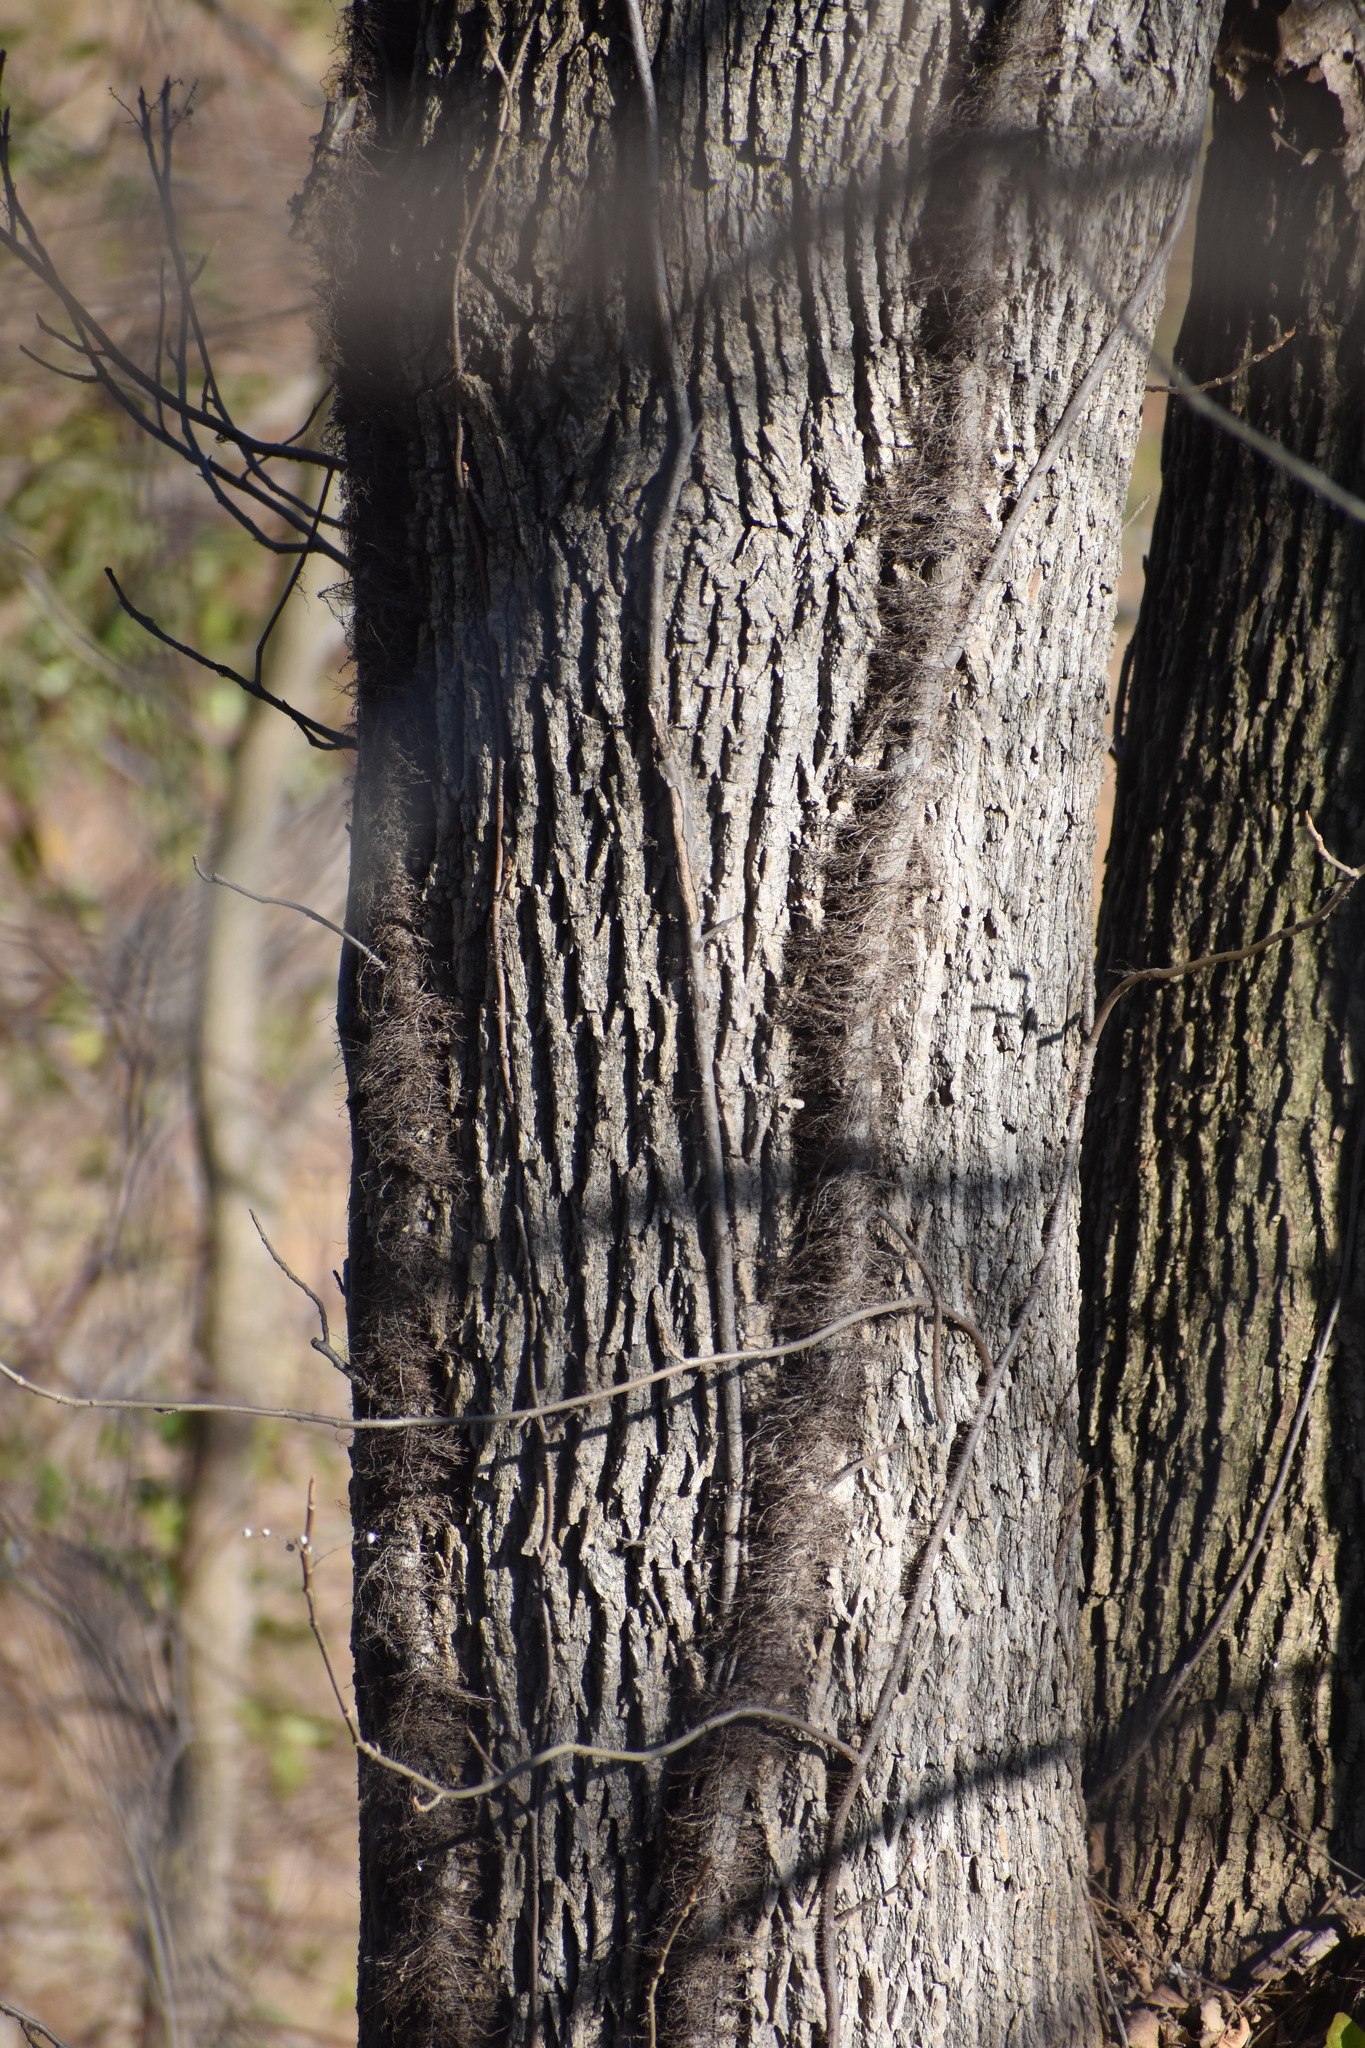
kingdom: Plantae
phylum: Tracheophyta
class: Magnoliopsida
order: Sapindales
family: Anacardiaceae
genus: Toxicodendron
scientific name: Toxicodendron radicans
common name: Poison ivy
